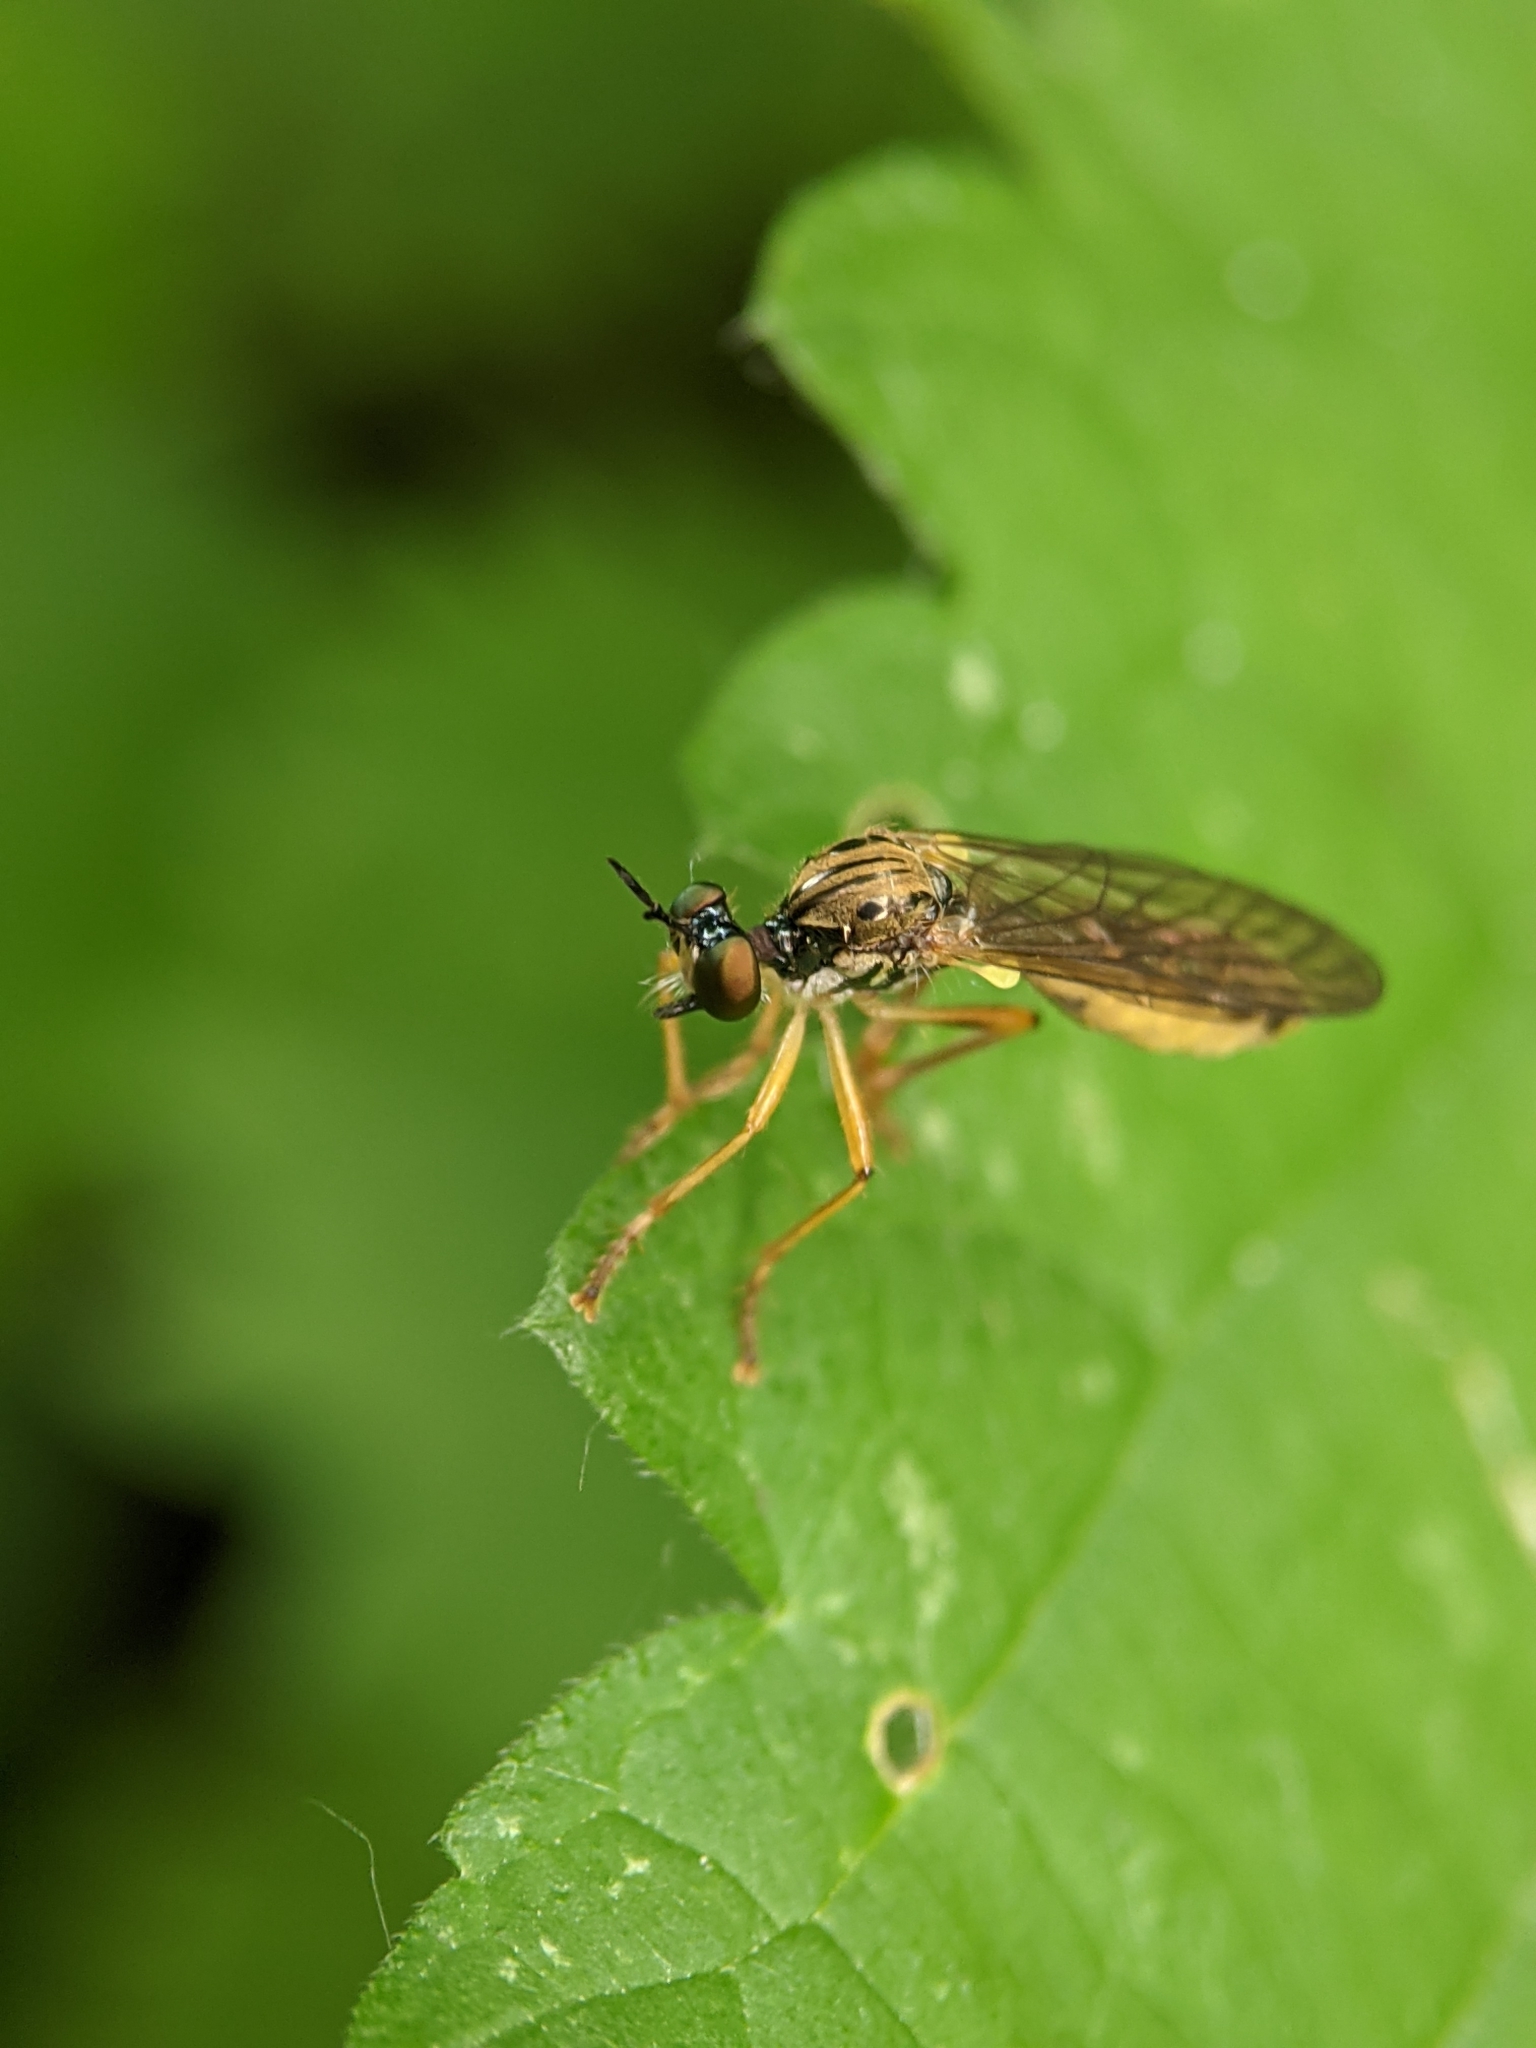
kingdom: Animalia
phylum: Arthropoda
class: Insecta
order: Diptera
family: Asilidae
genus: Dioctria
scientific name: Dioctria linearis
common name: Small yellow-legged robberfly
